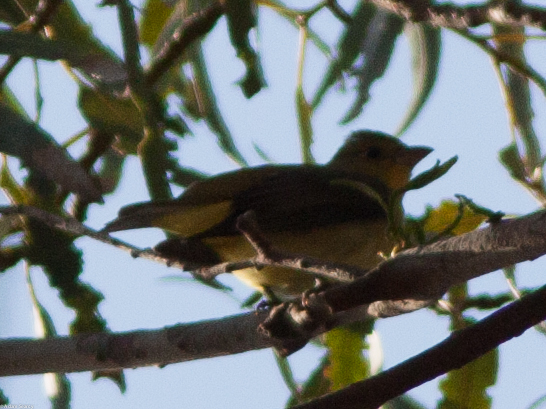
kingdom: Animalia
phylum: Chordata
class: Aves
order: Passeriformes
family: Cardinalidae
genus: Piranga
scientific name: Piranga olivacea
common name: Scarlet tanager
